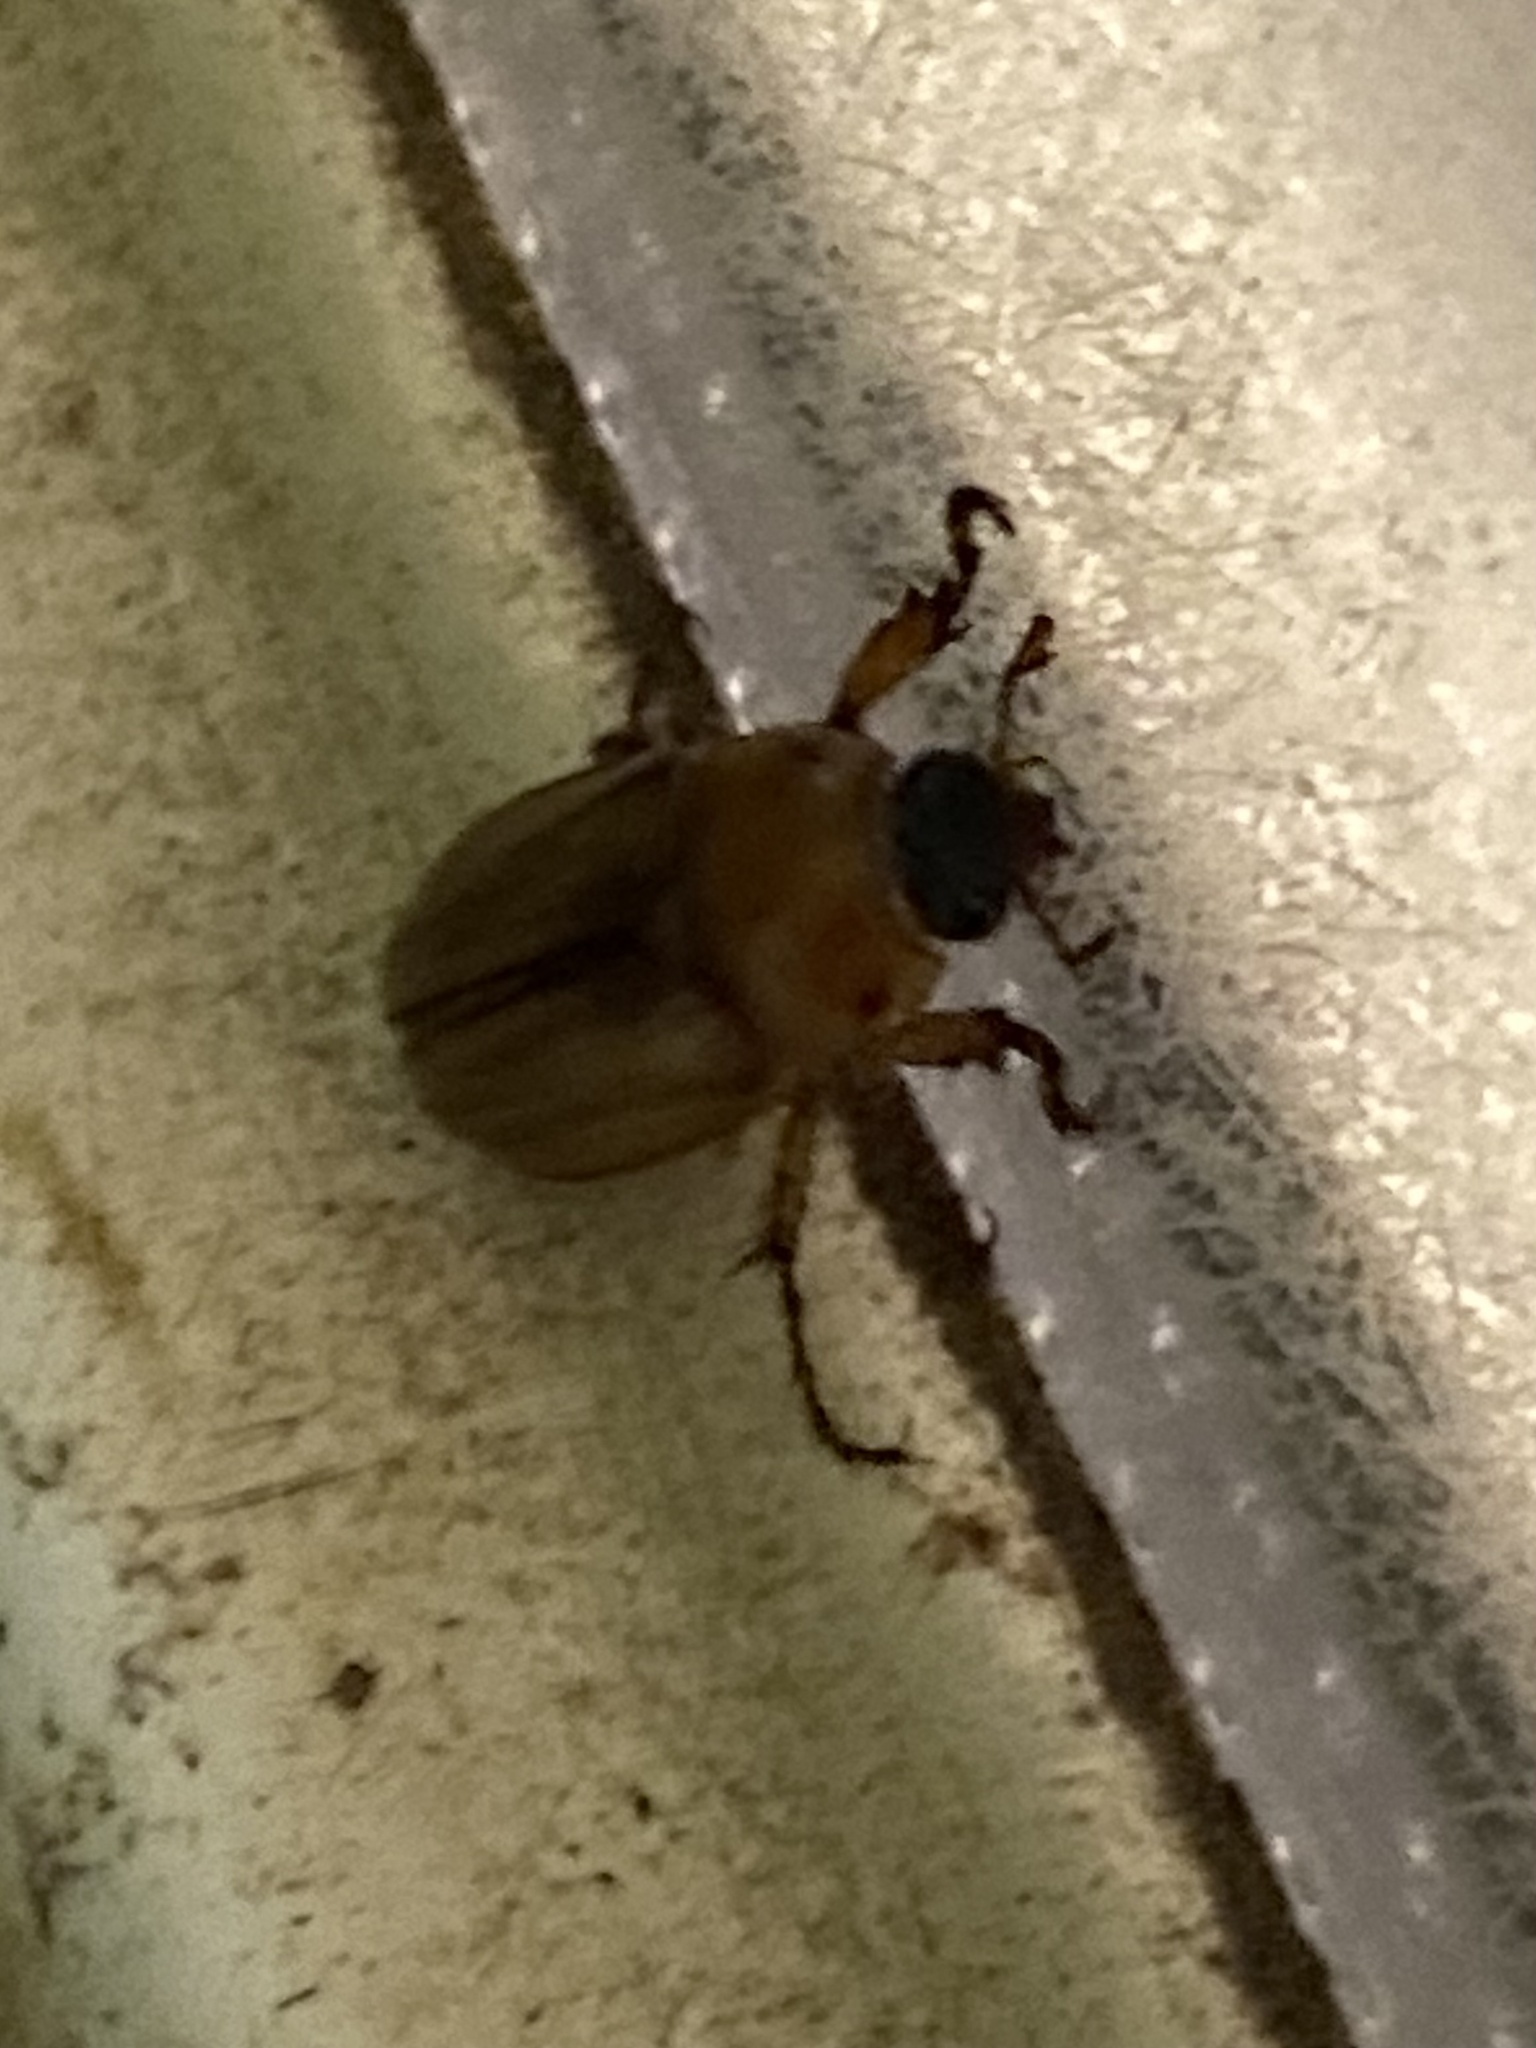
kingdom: Animalia
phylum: Arthropoda
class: Insecta
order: Coleoptera
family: Scarabaeidae
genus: Cyclocephala
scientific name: Cyclocephala lurida
